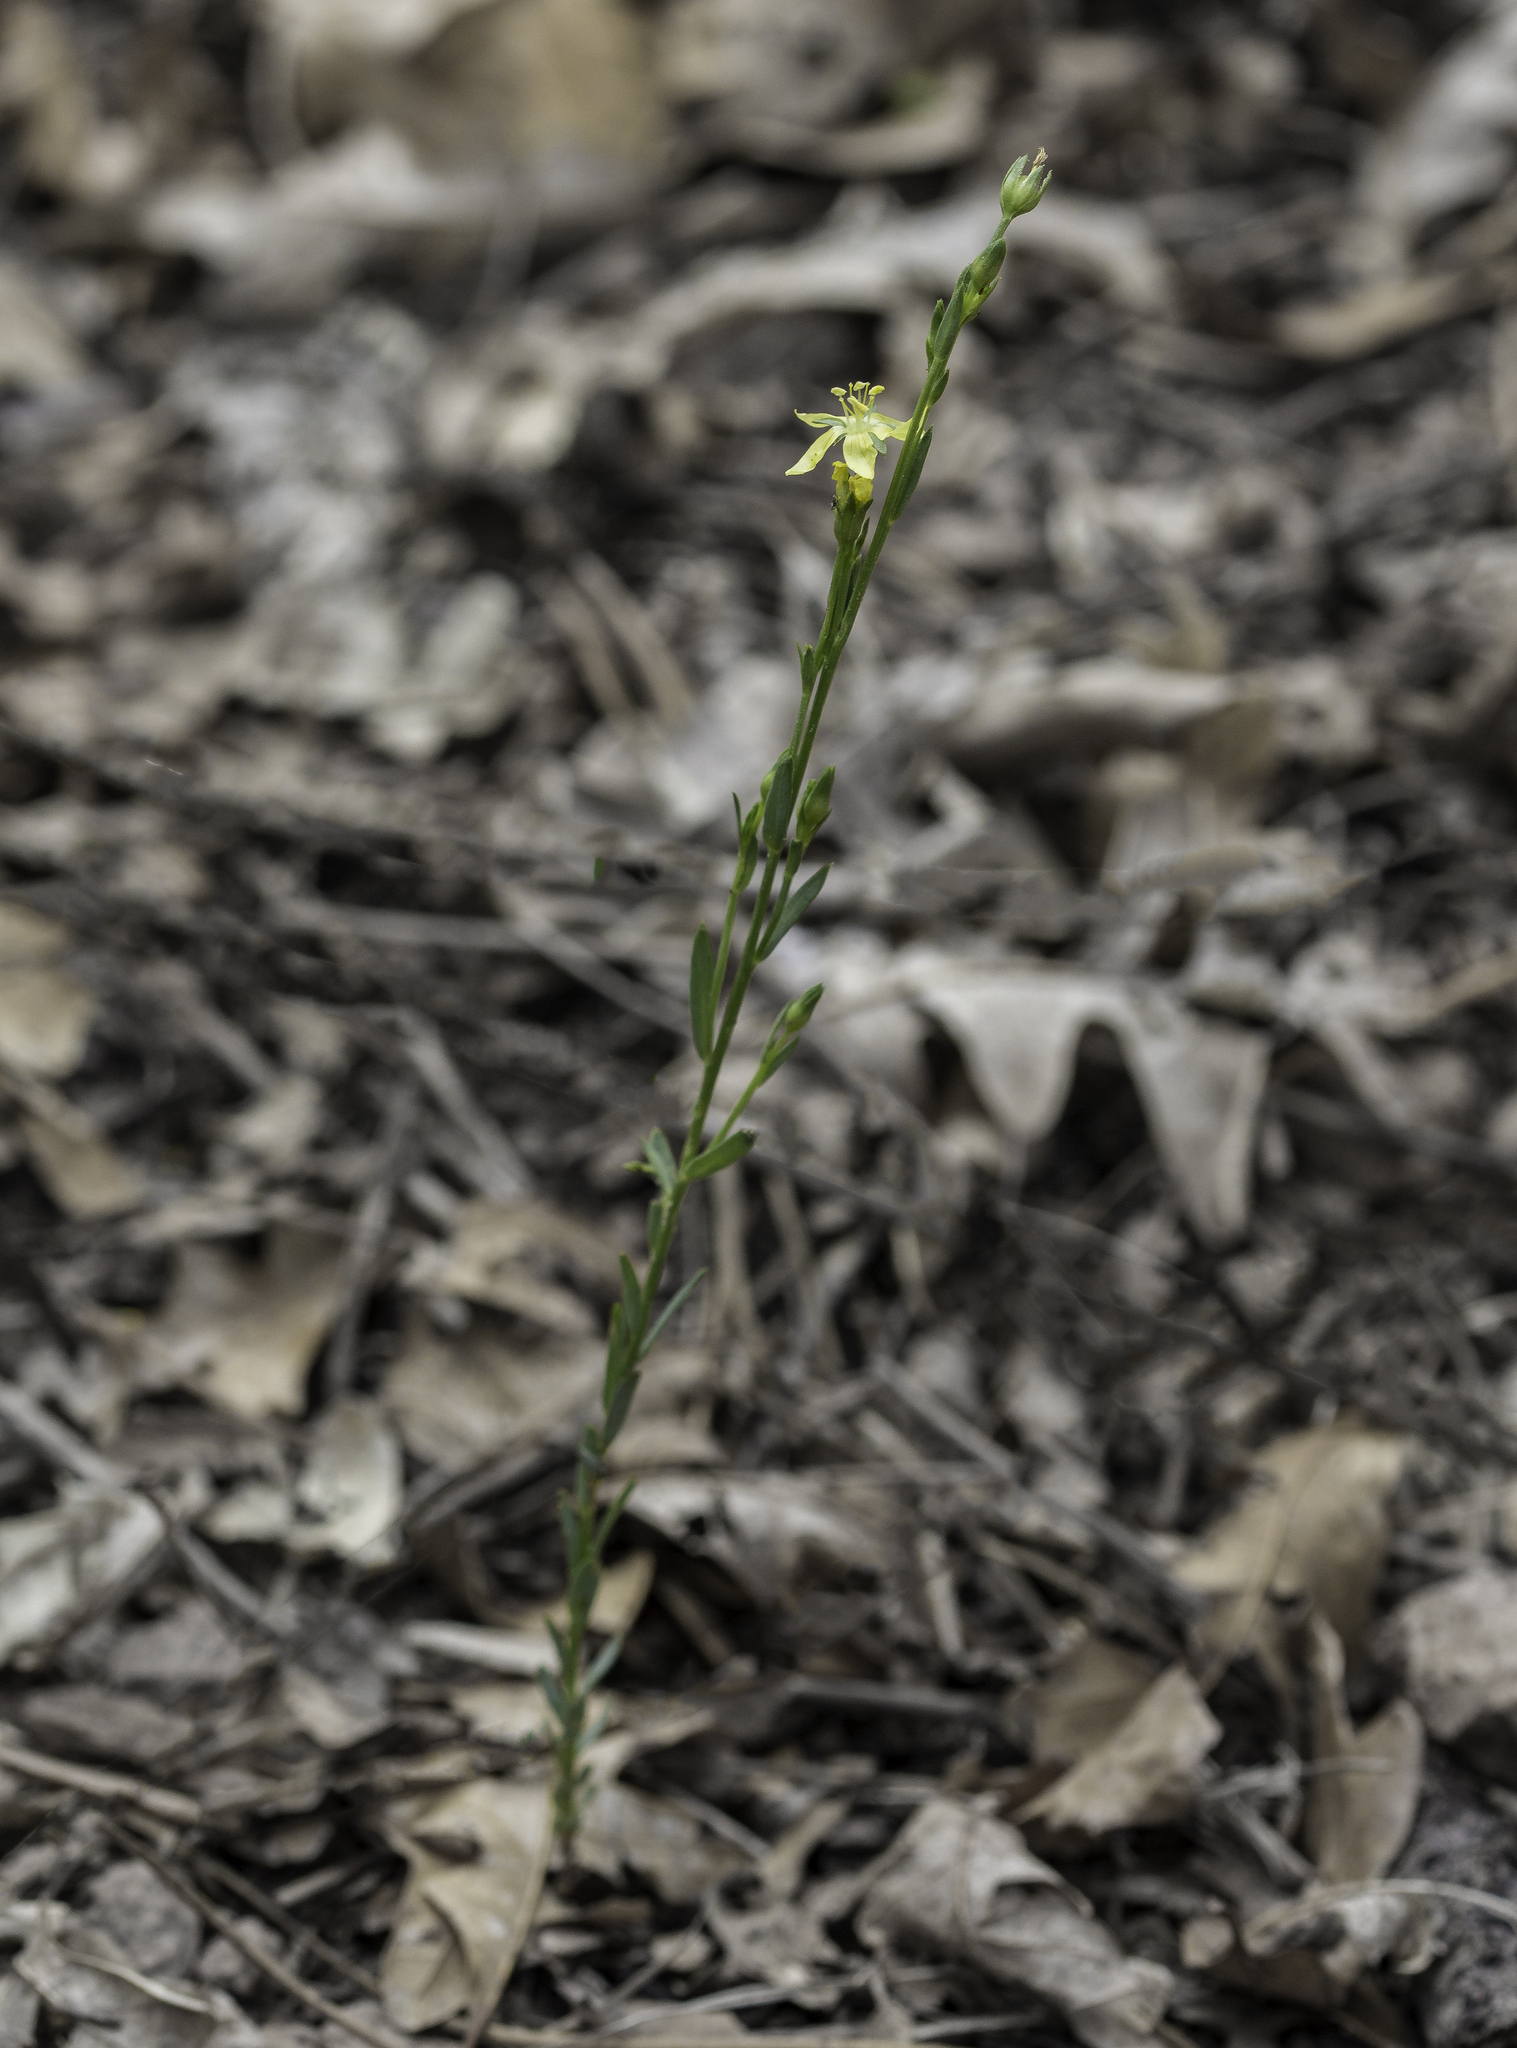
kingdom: Plantae
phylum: Tracheophyta
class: Magnoliopsida
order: Malpighiales
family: Linaceae
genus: Linum
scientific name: Linum neomexicanum
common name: New mexico yellow flax
